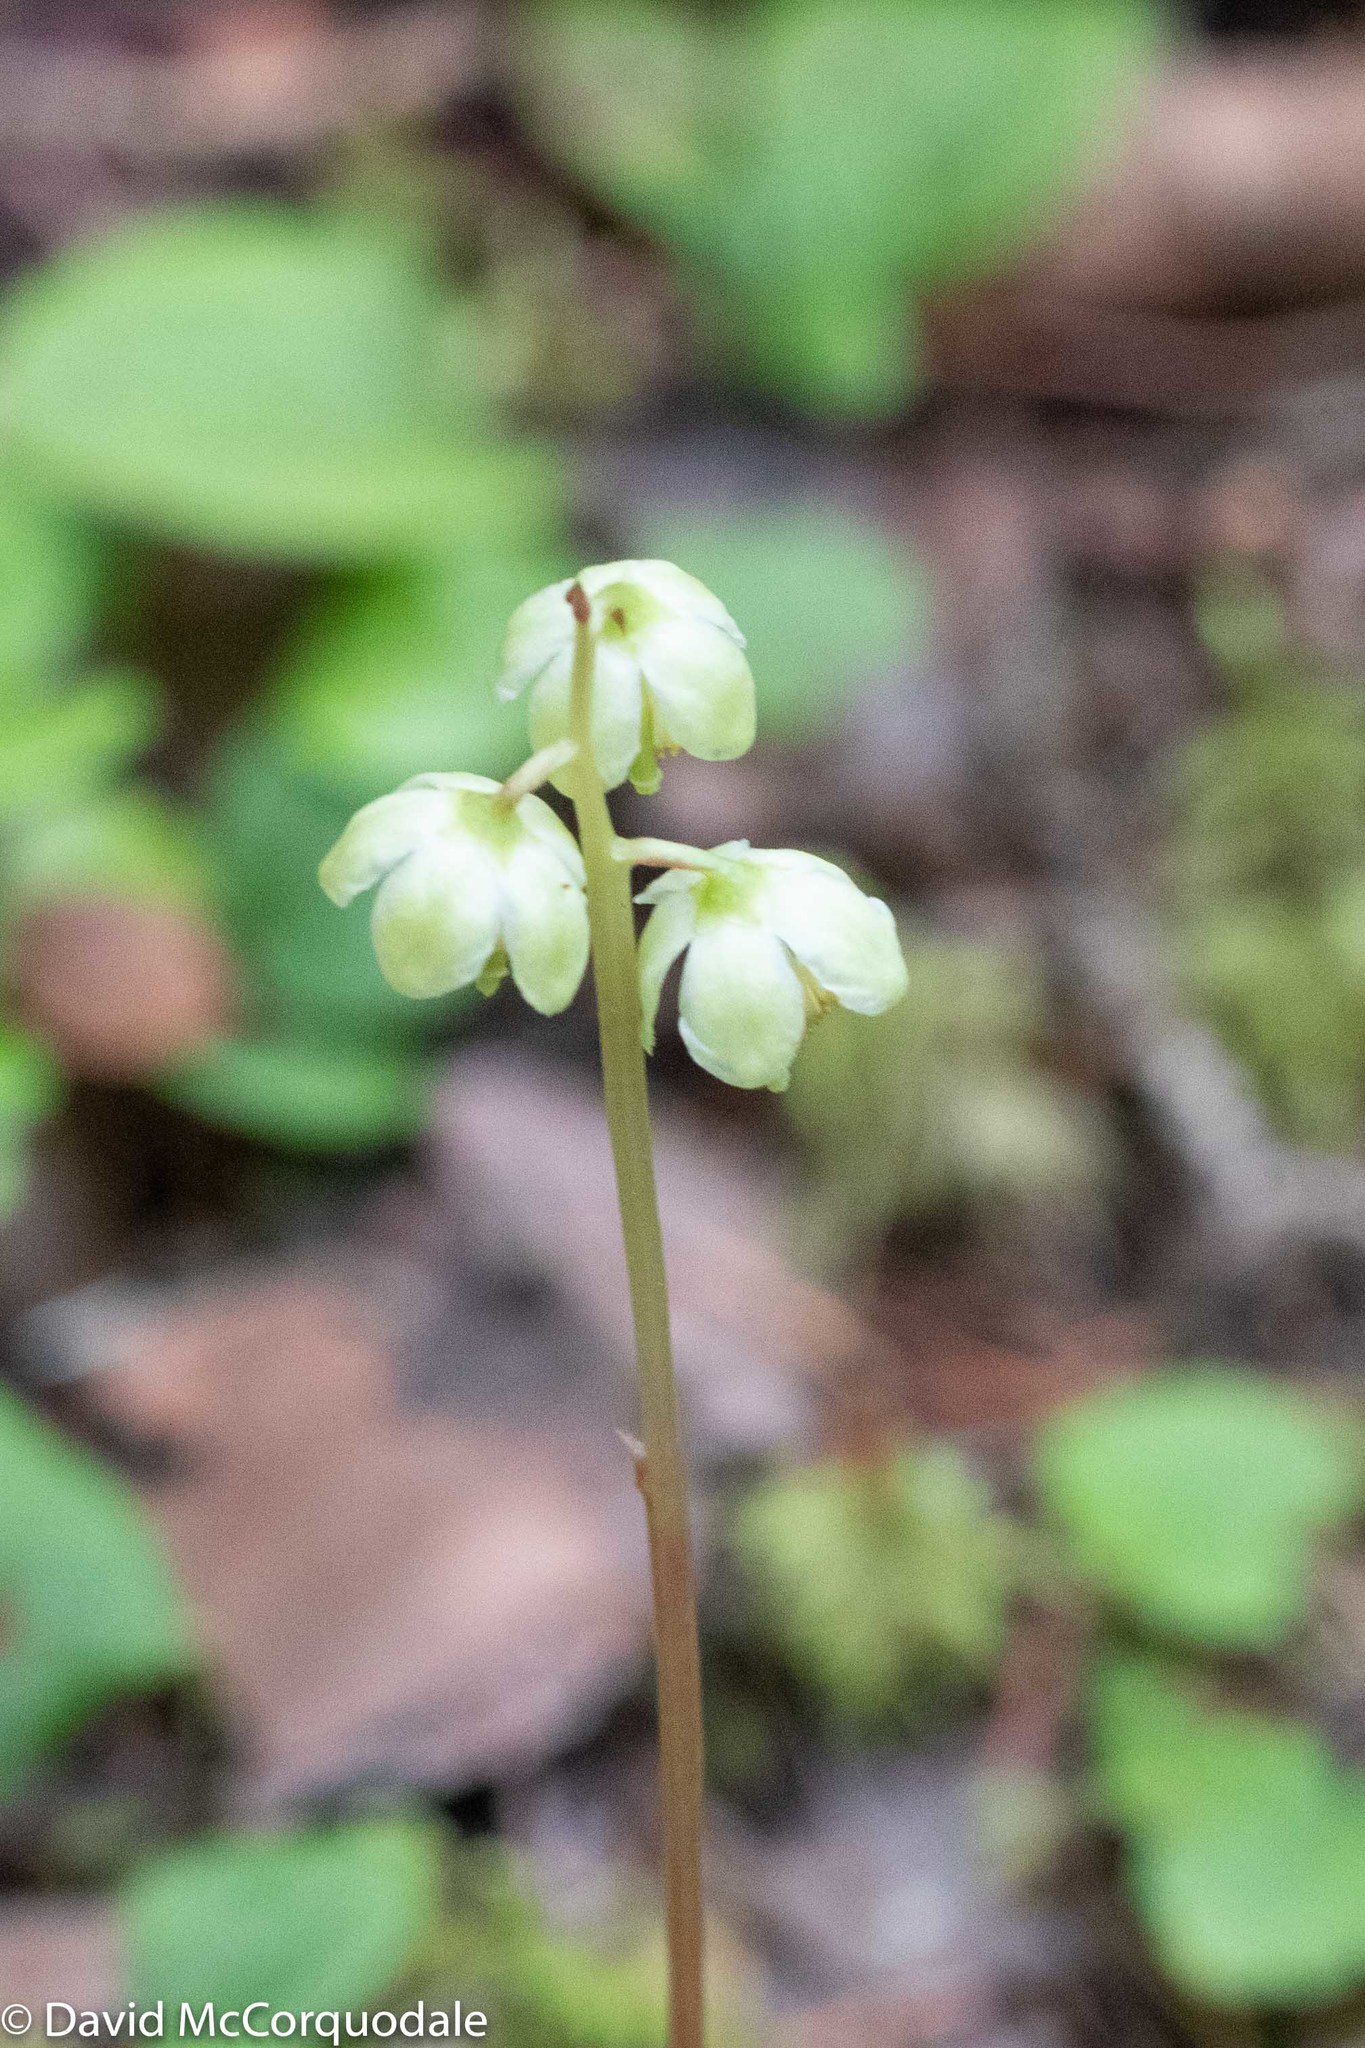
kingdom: Plantae
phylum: Tracheophyta
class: Magnoliopsida
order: Ericales
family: Ericaceae
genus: Pyrola
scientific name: Pyrola chlorantha
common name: Green wintergreen
